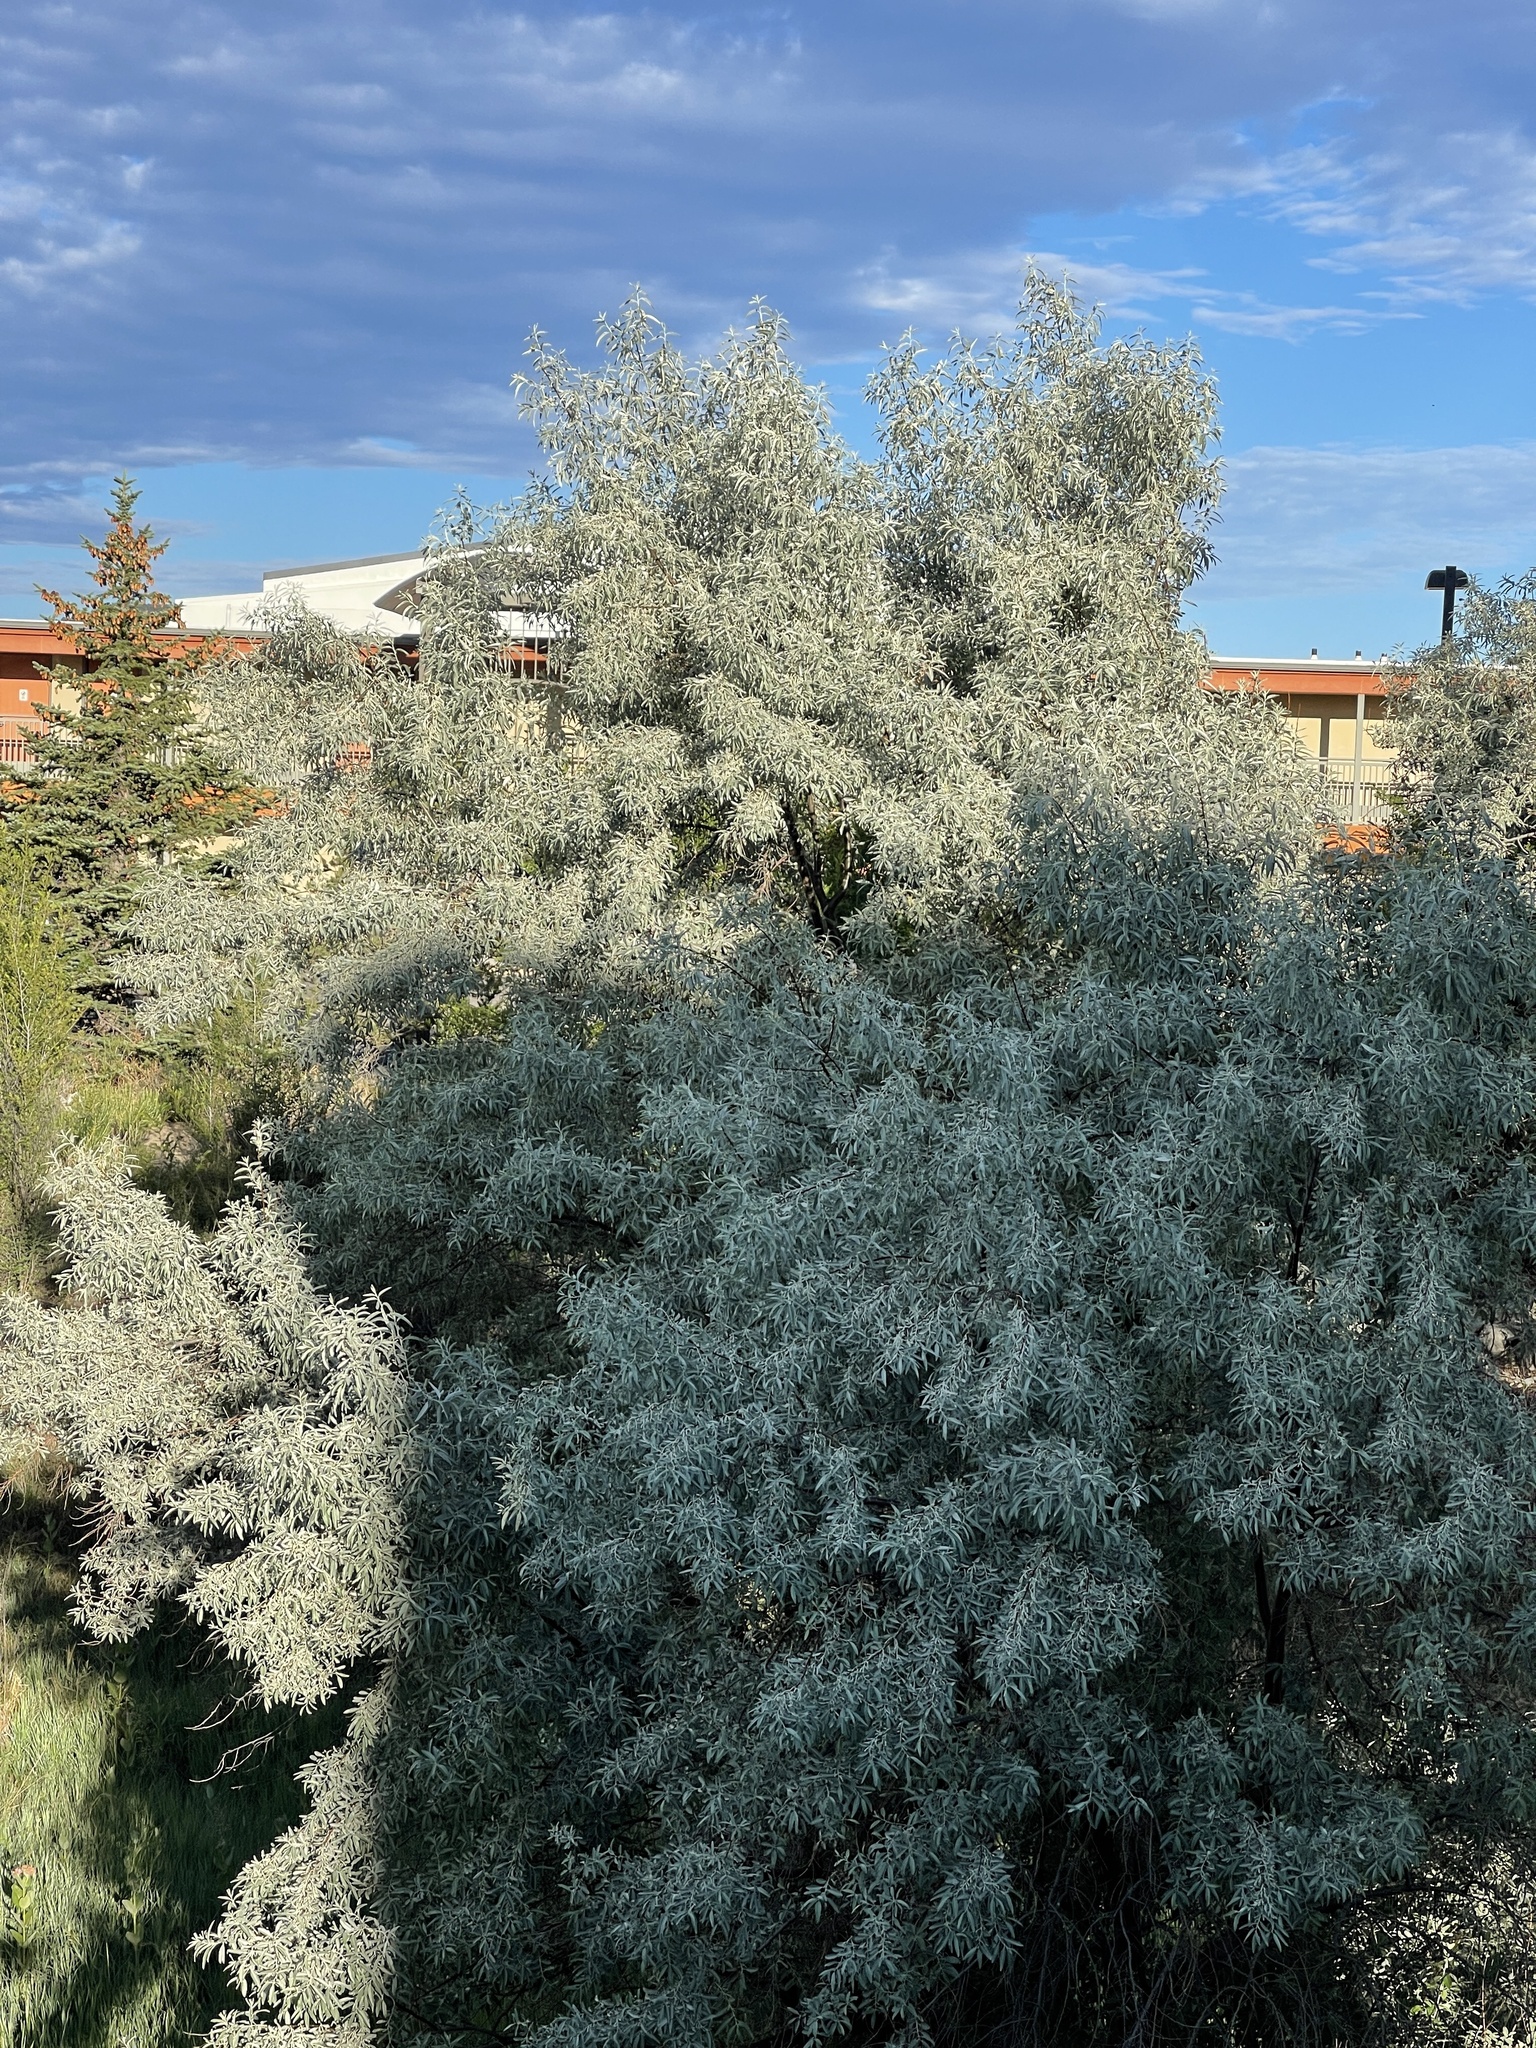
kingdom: Plantae
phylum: Tracheophyta
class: Magnoliopsida
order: Rosales
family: Elaeagnaceae
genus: Elaeagnus
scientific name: Elaeagnus angustifolia
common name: Russian olive
